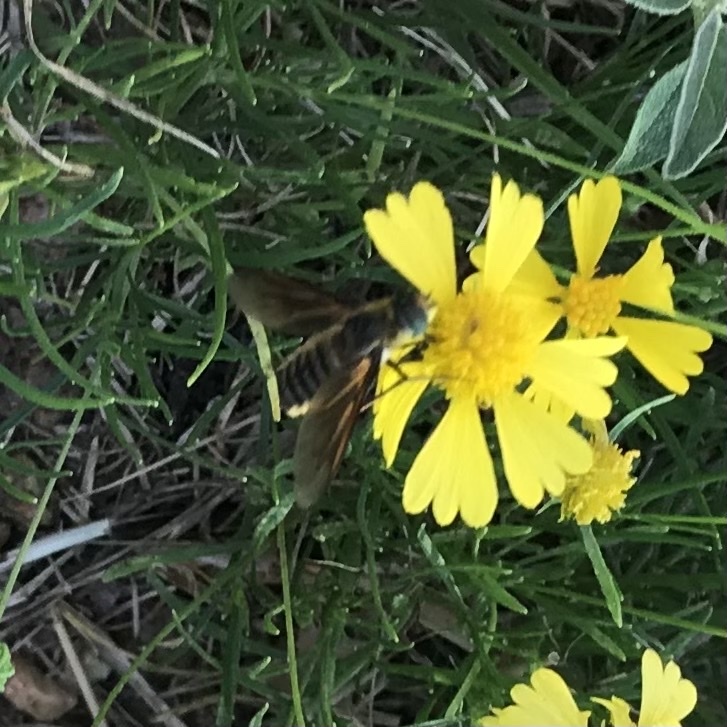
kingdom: Animalia
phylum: Arthropoda
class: Insecta
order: Diptera
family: Bombyliidae
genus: Poecilanthrax
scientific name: Poecilanthrax lucifer
